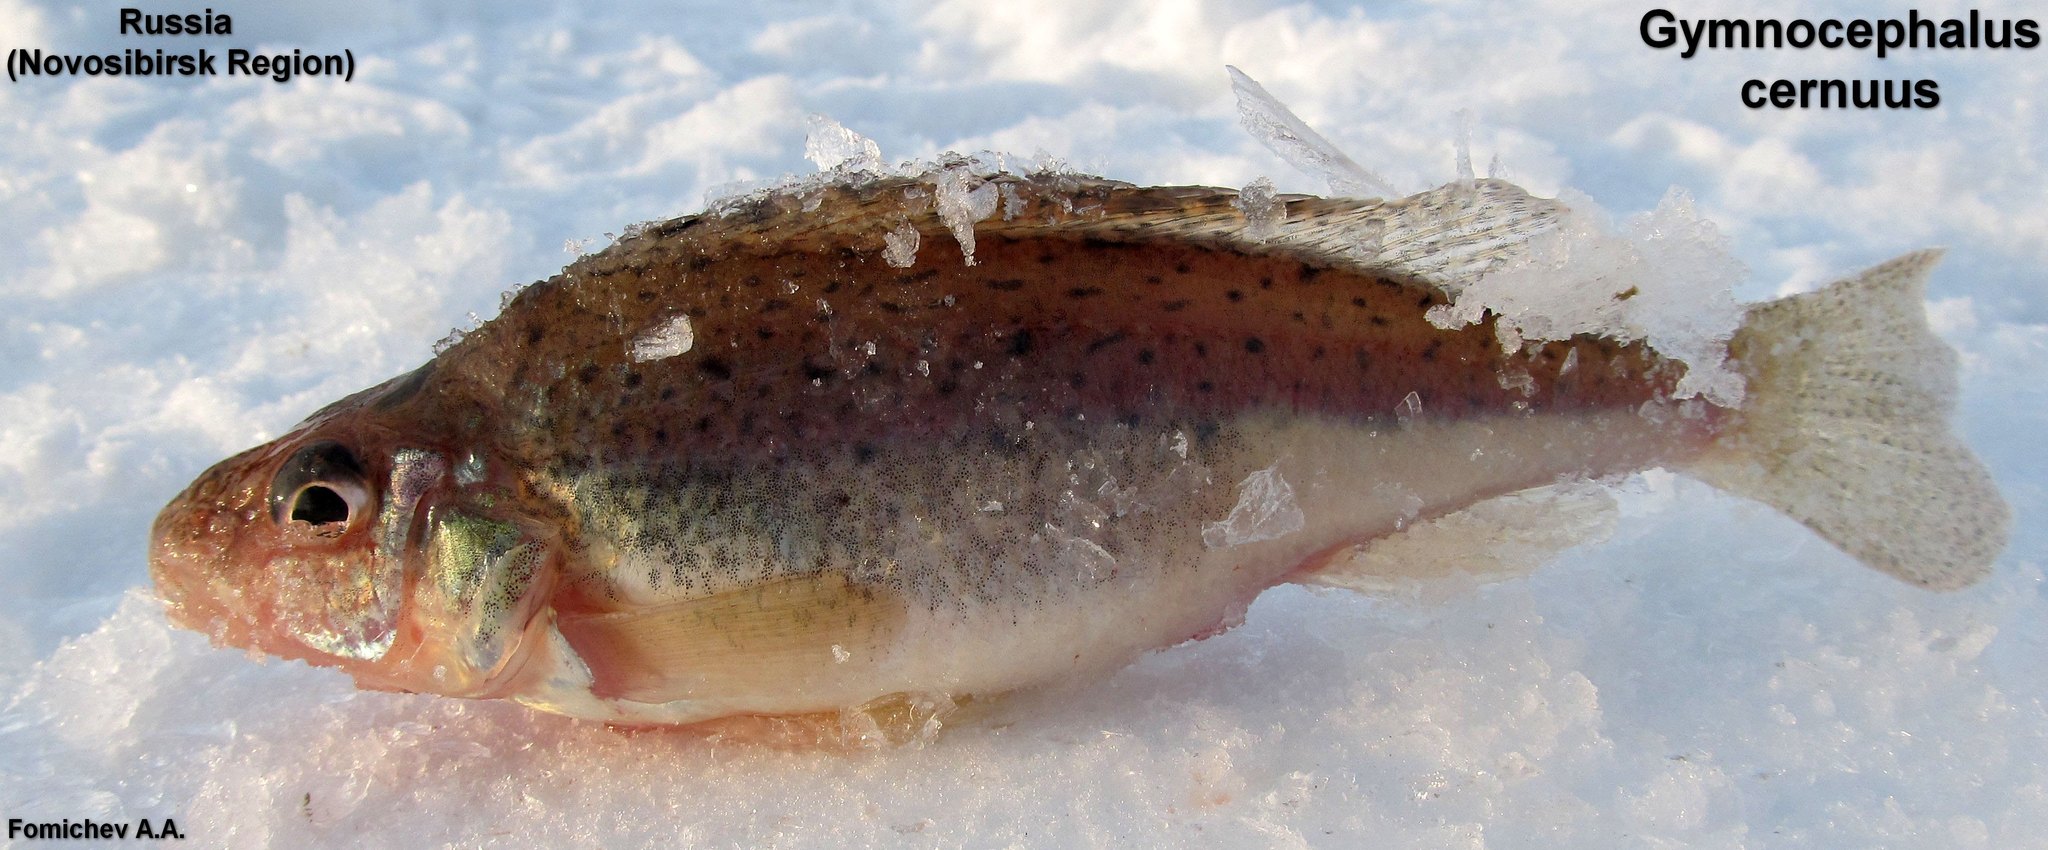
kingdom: Animalia
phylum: Chordata
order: Perciformes
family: Percidae
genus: Gymnocephalus
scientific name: Gymnocephalus cernua
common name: Ruffe
